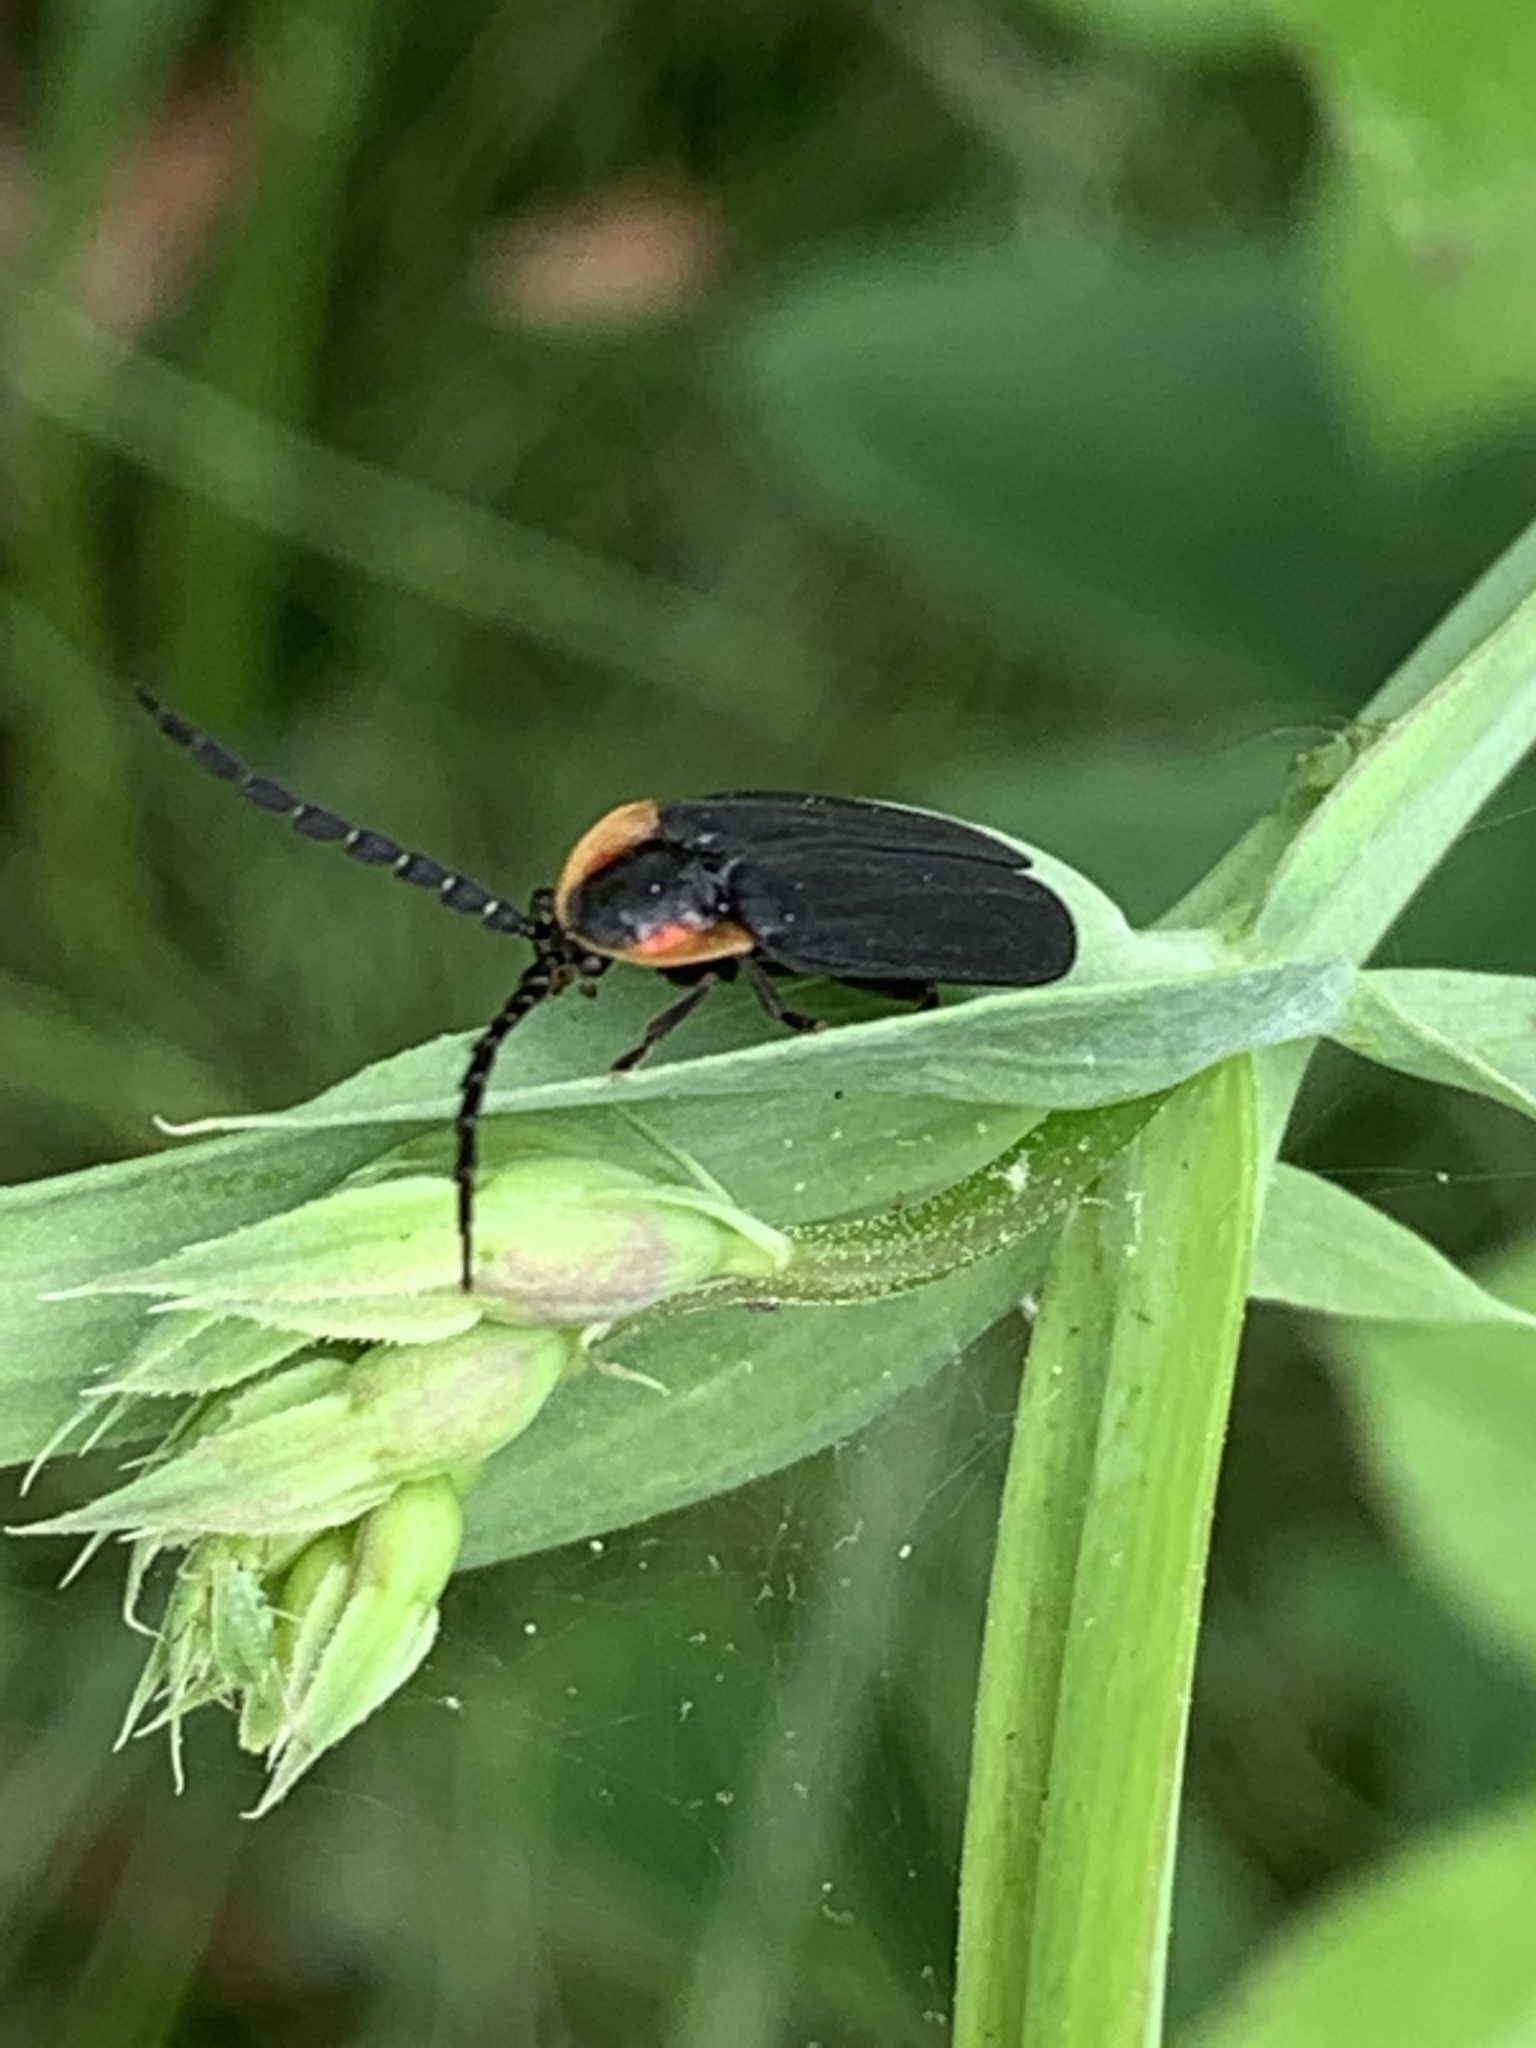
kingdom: Animalia
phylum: Arthropoda
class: Insecta
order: Coleoptera
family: Lampyridae
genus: Lucidota
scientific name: Lucidota atra
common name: Black firefly
